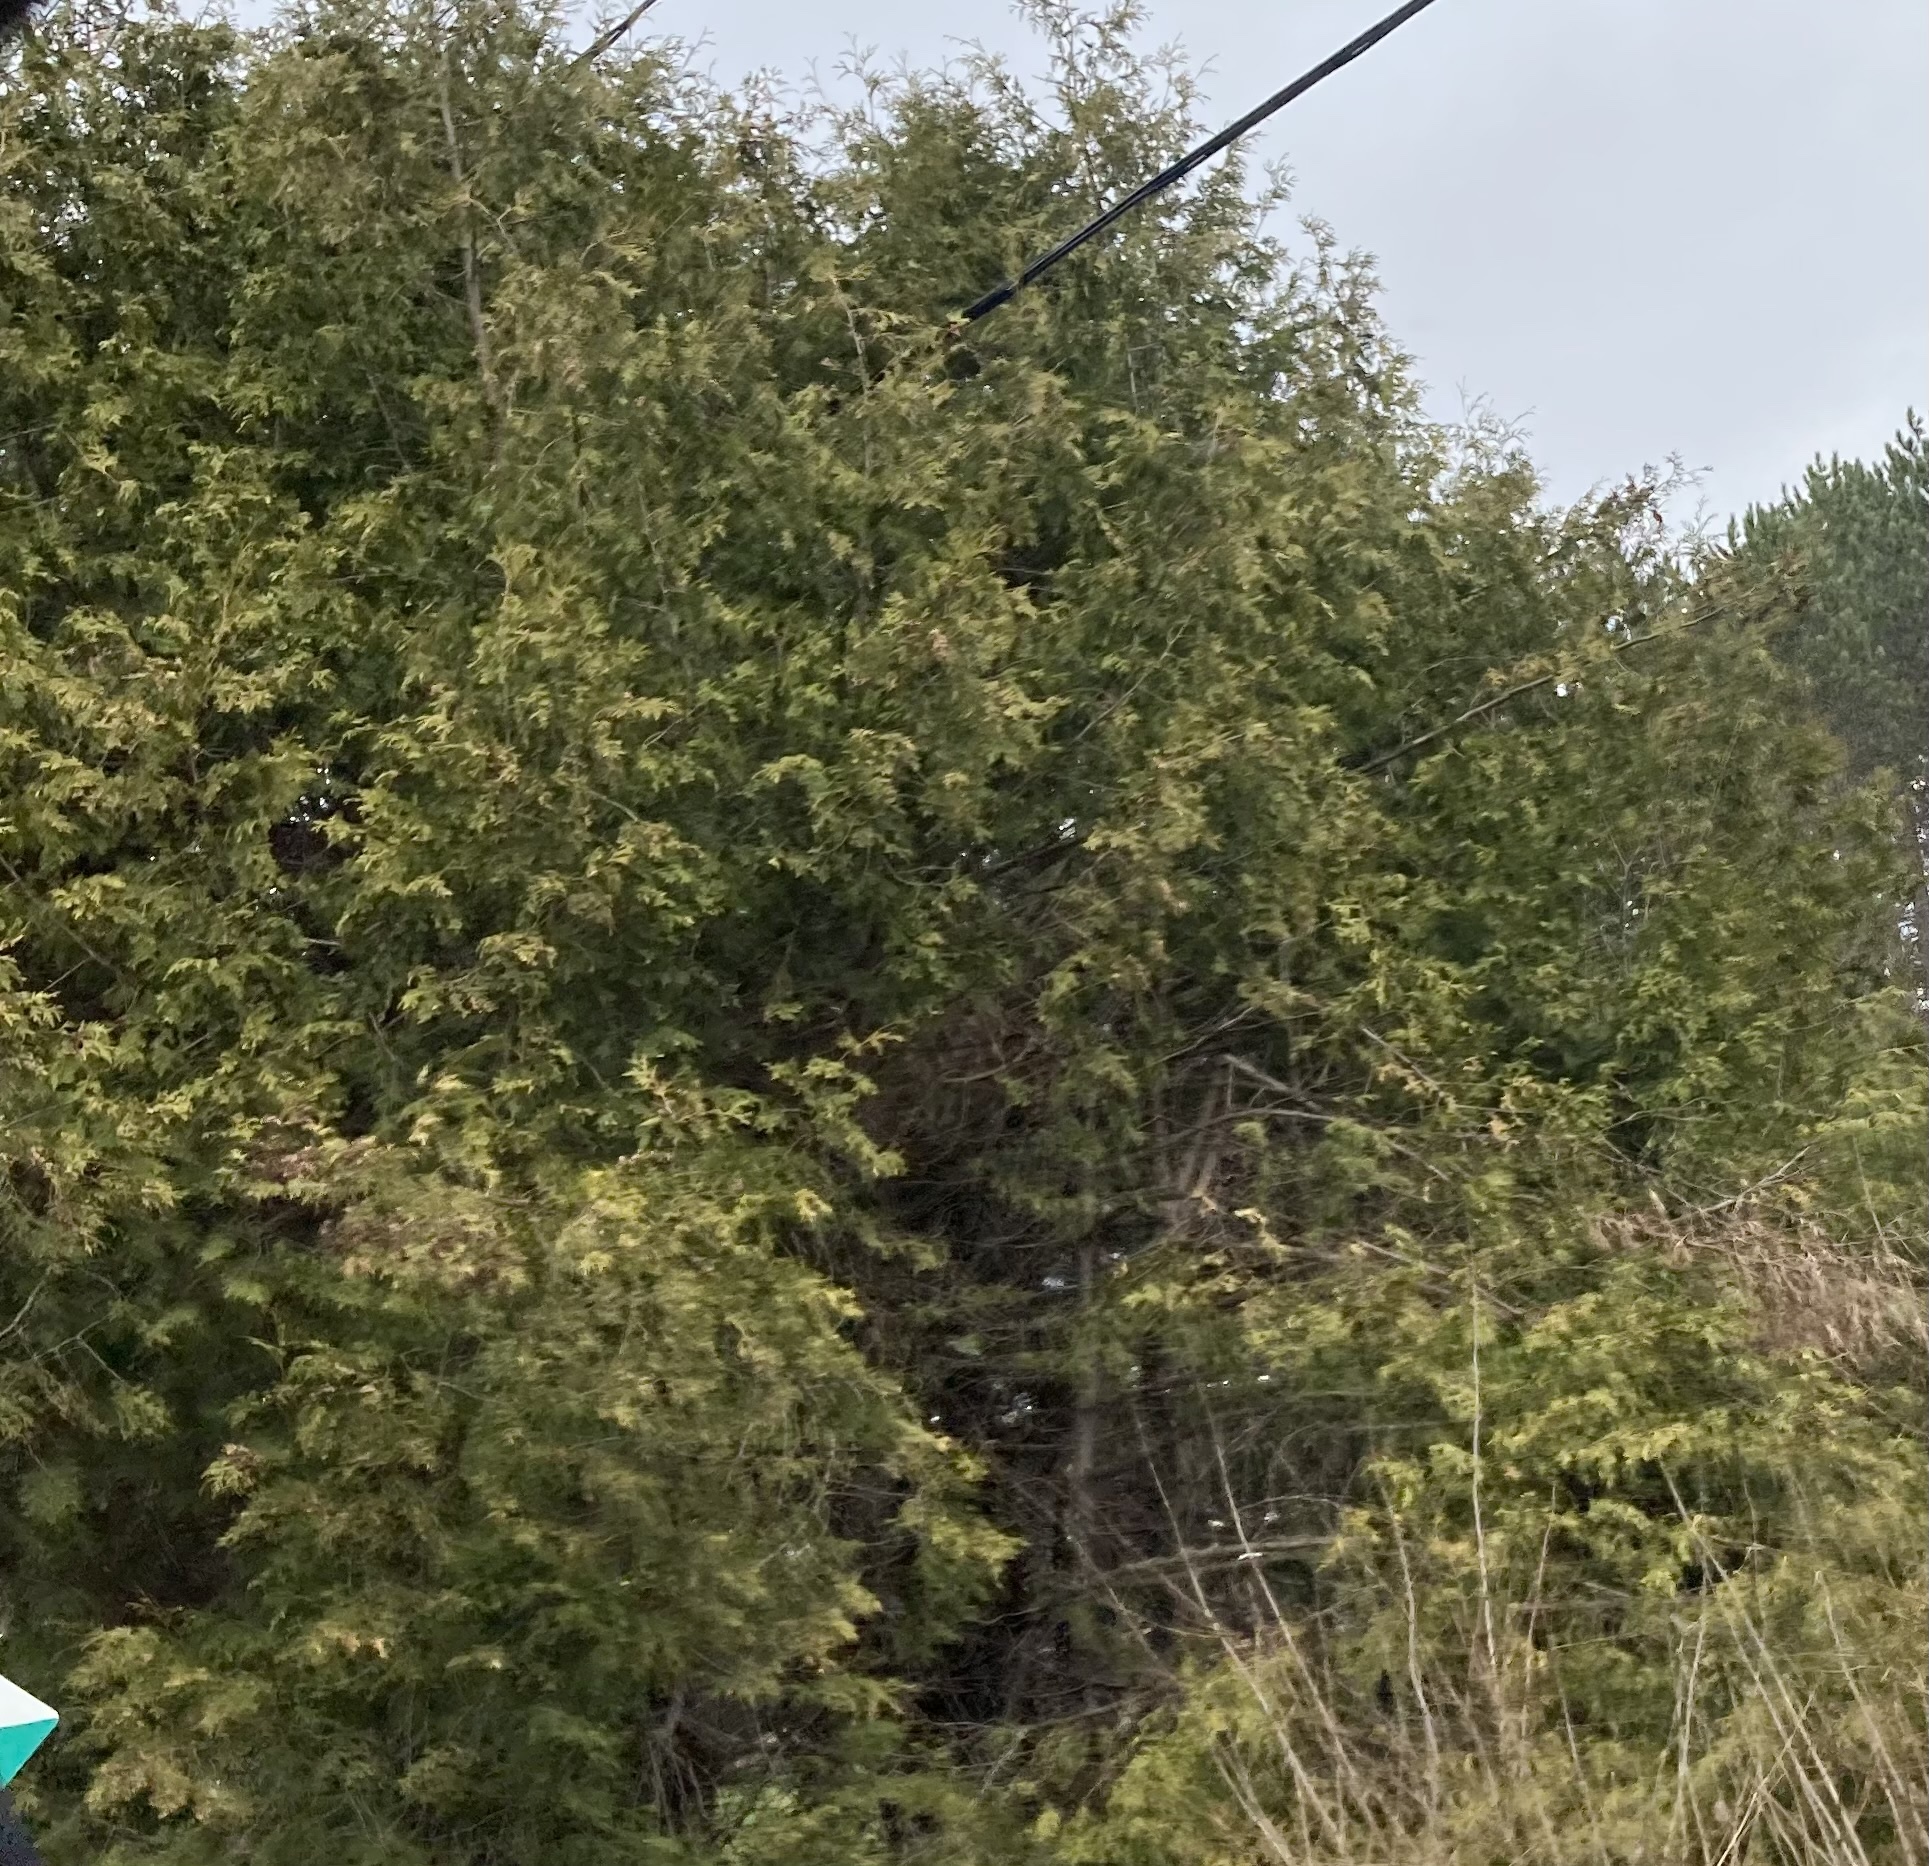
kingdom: Plantae
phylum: Tracheophyta
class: Pinopsida
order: Pinales
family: Cupressaceae
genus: Thuja
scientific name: Thuja occidentalis
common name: Northern white-cedar
